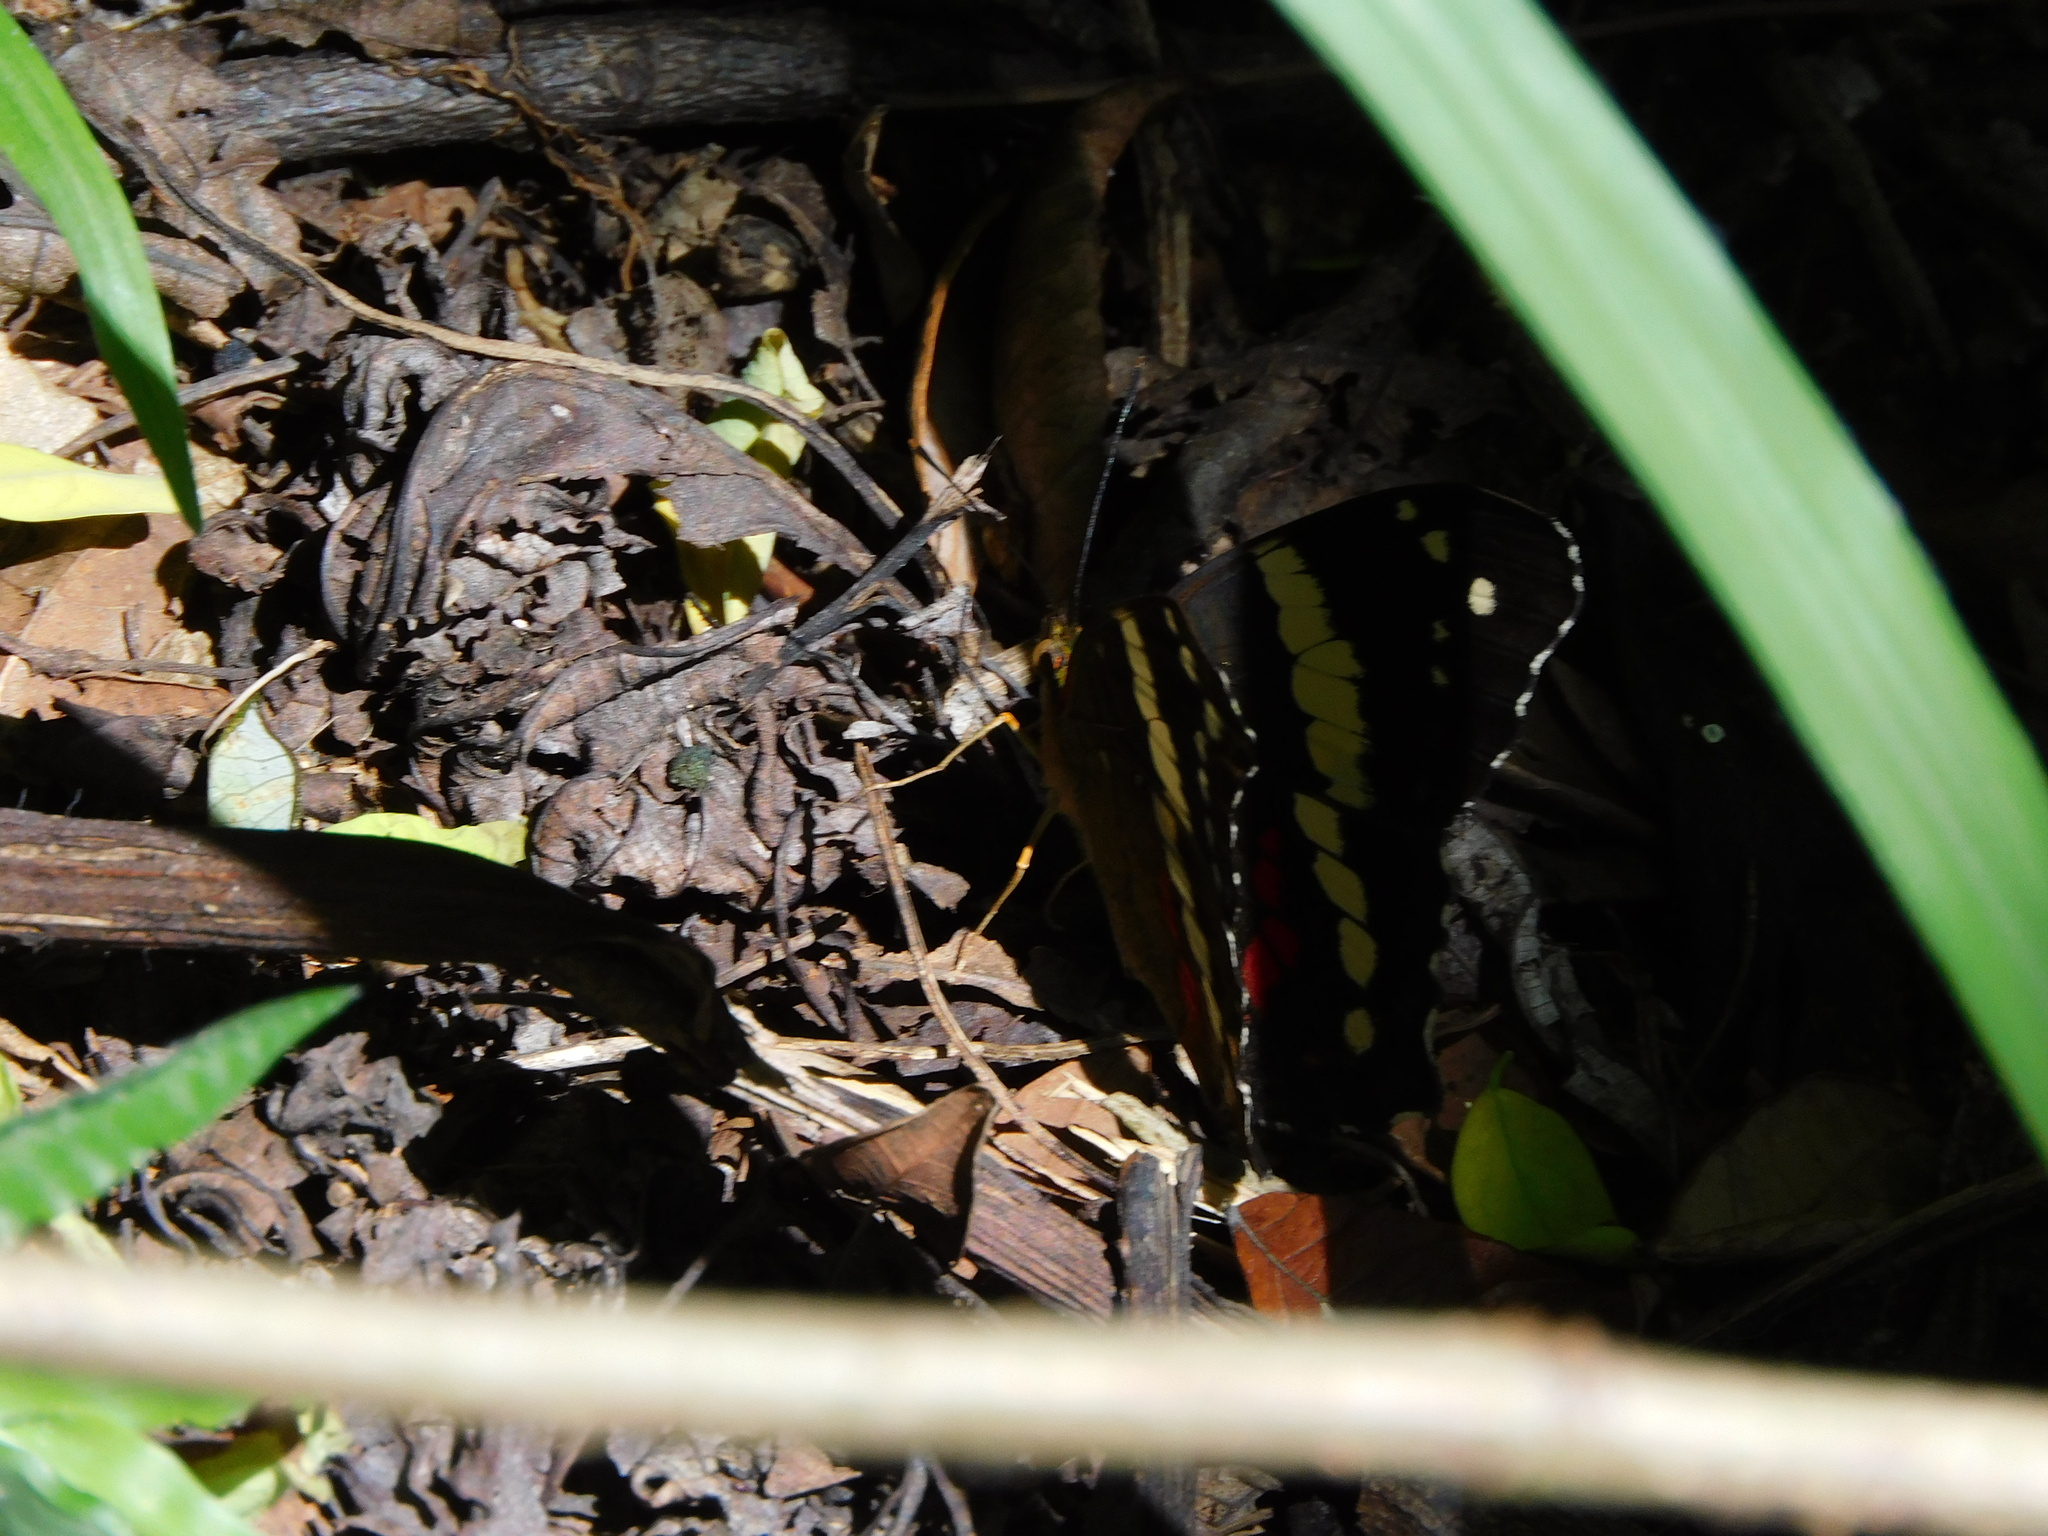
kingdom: Animalia
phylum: Arthropoda
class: Insecta
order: Lepidoptera
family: Nymphalidae
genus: Anartia
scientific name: Anartia fatima
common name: Banded peacock
